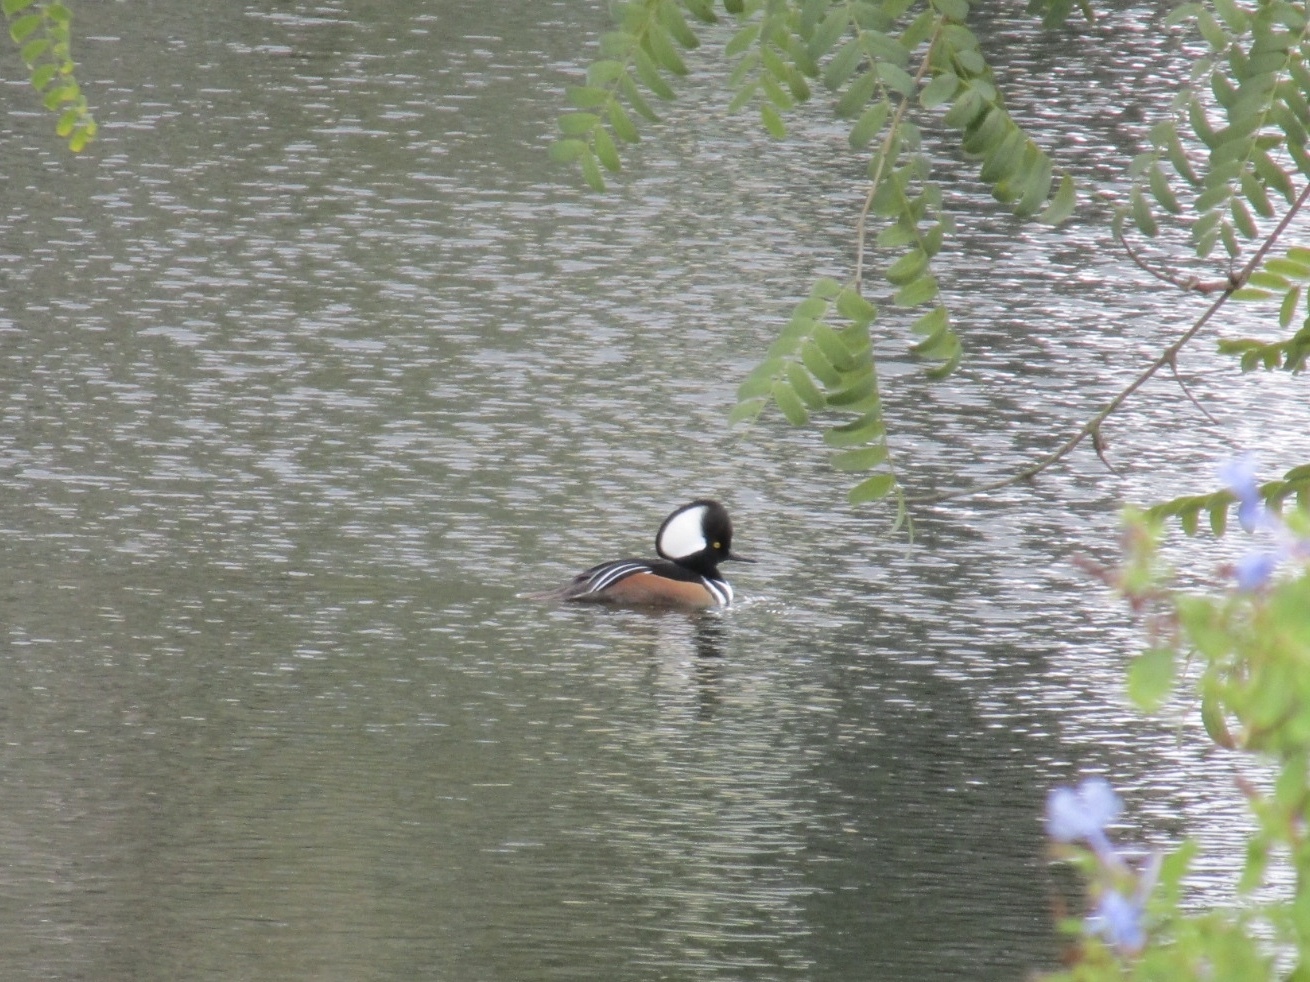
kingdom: Animalia
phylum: Chordata
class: Aves
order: Anseriformes
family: Anatidae
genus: Lophodytes
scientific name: Lophodytes cucullatus
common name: Hooded merganser
